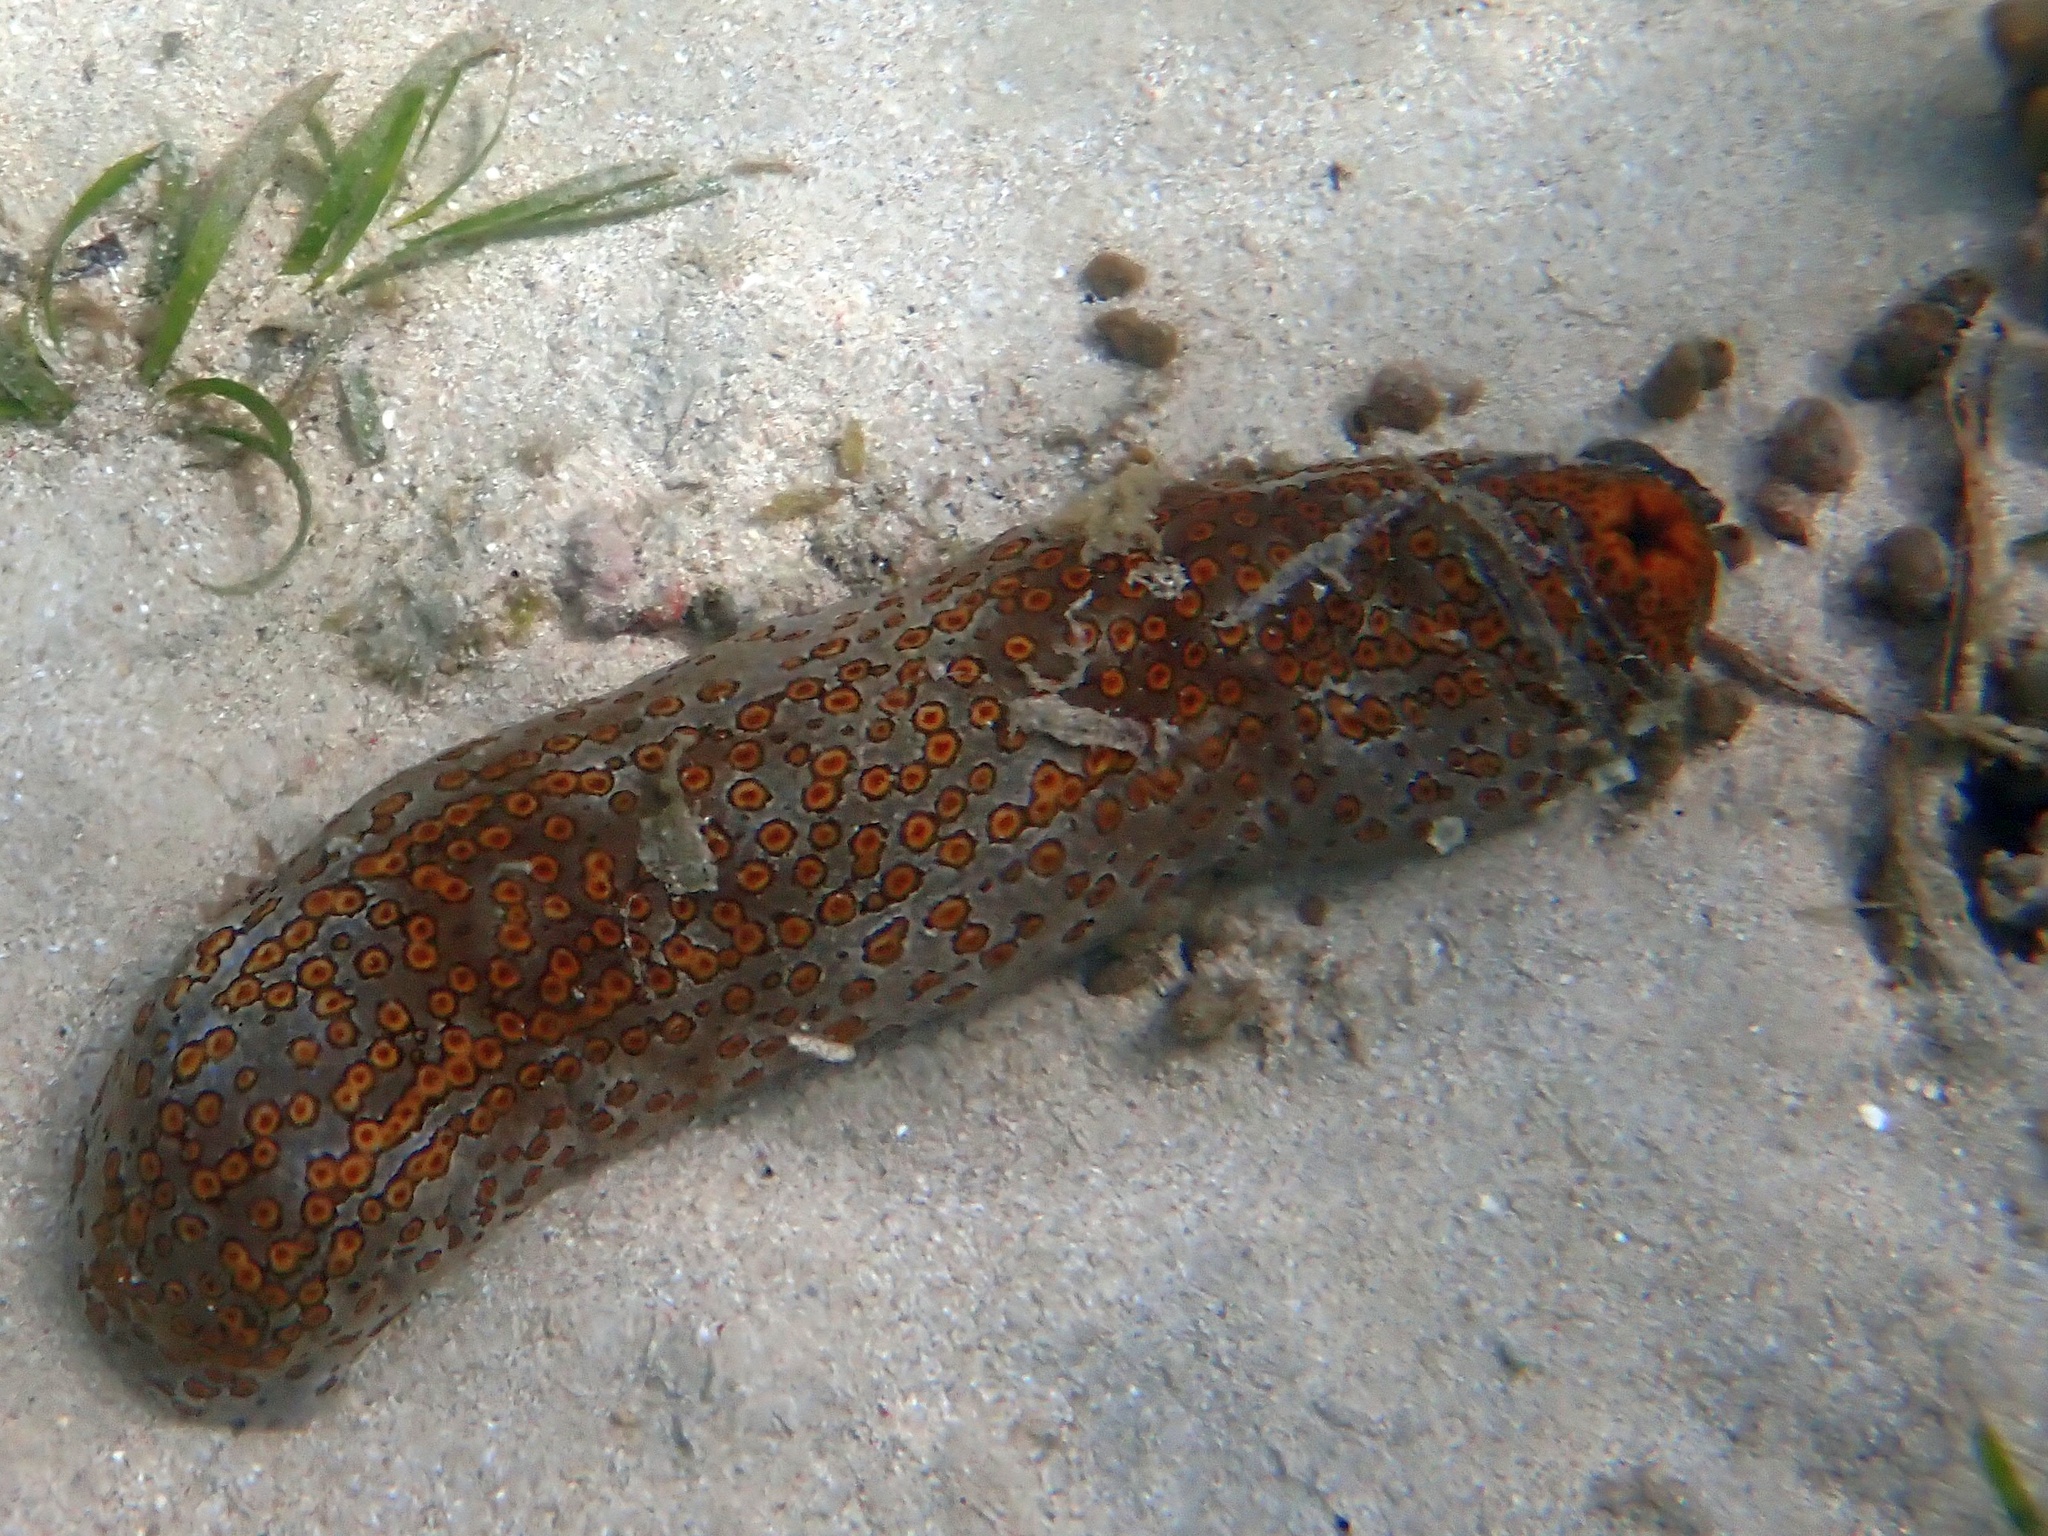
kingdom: Animalia
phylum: Echinodermata
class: Holothuroidea
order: Holothuriida
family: Holothuriidae
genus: Bohadschia
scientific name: Bohadschia argus
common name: Leopardfish
